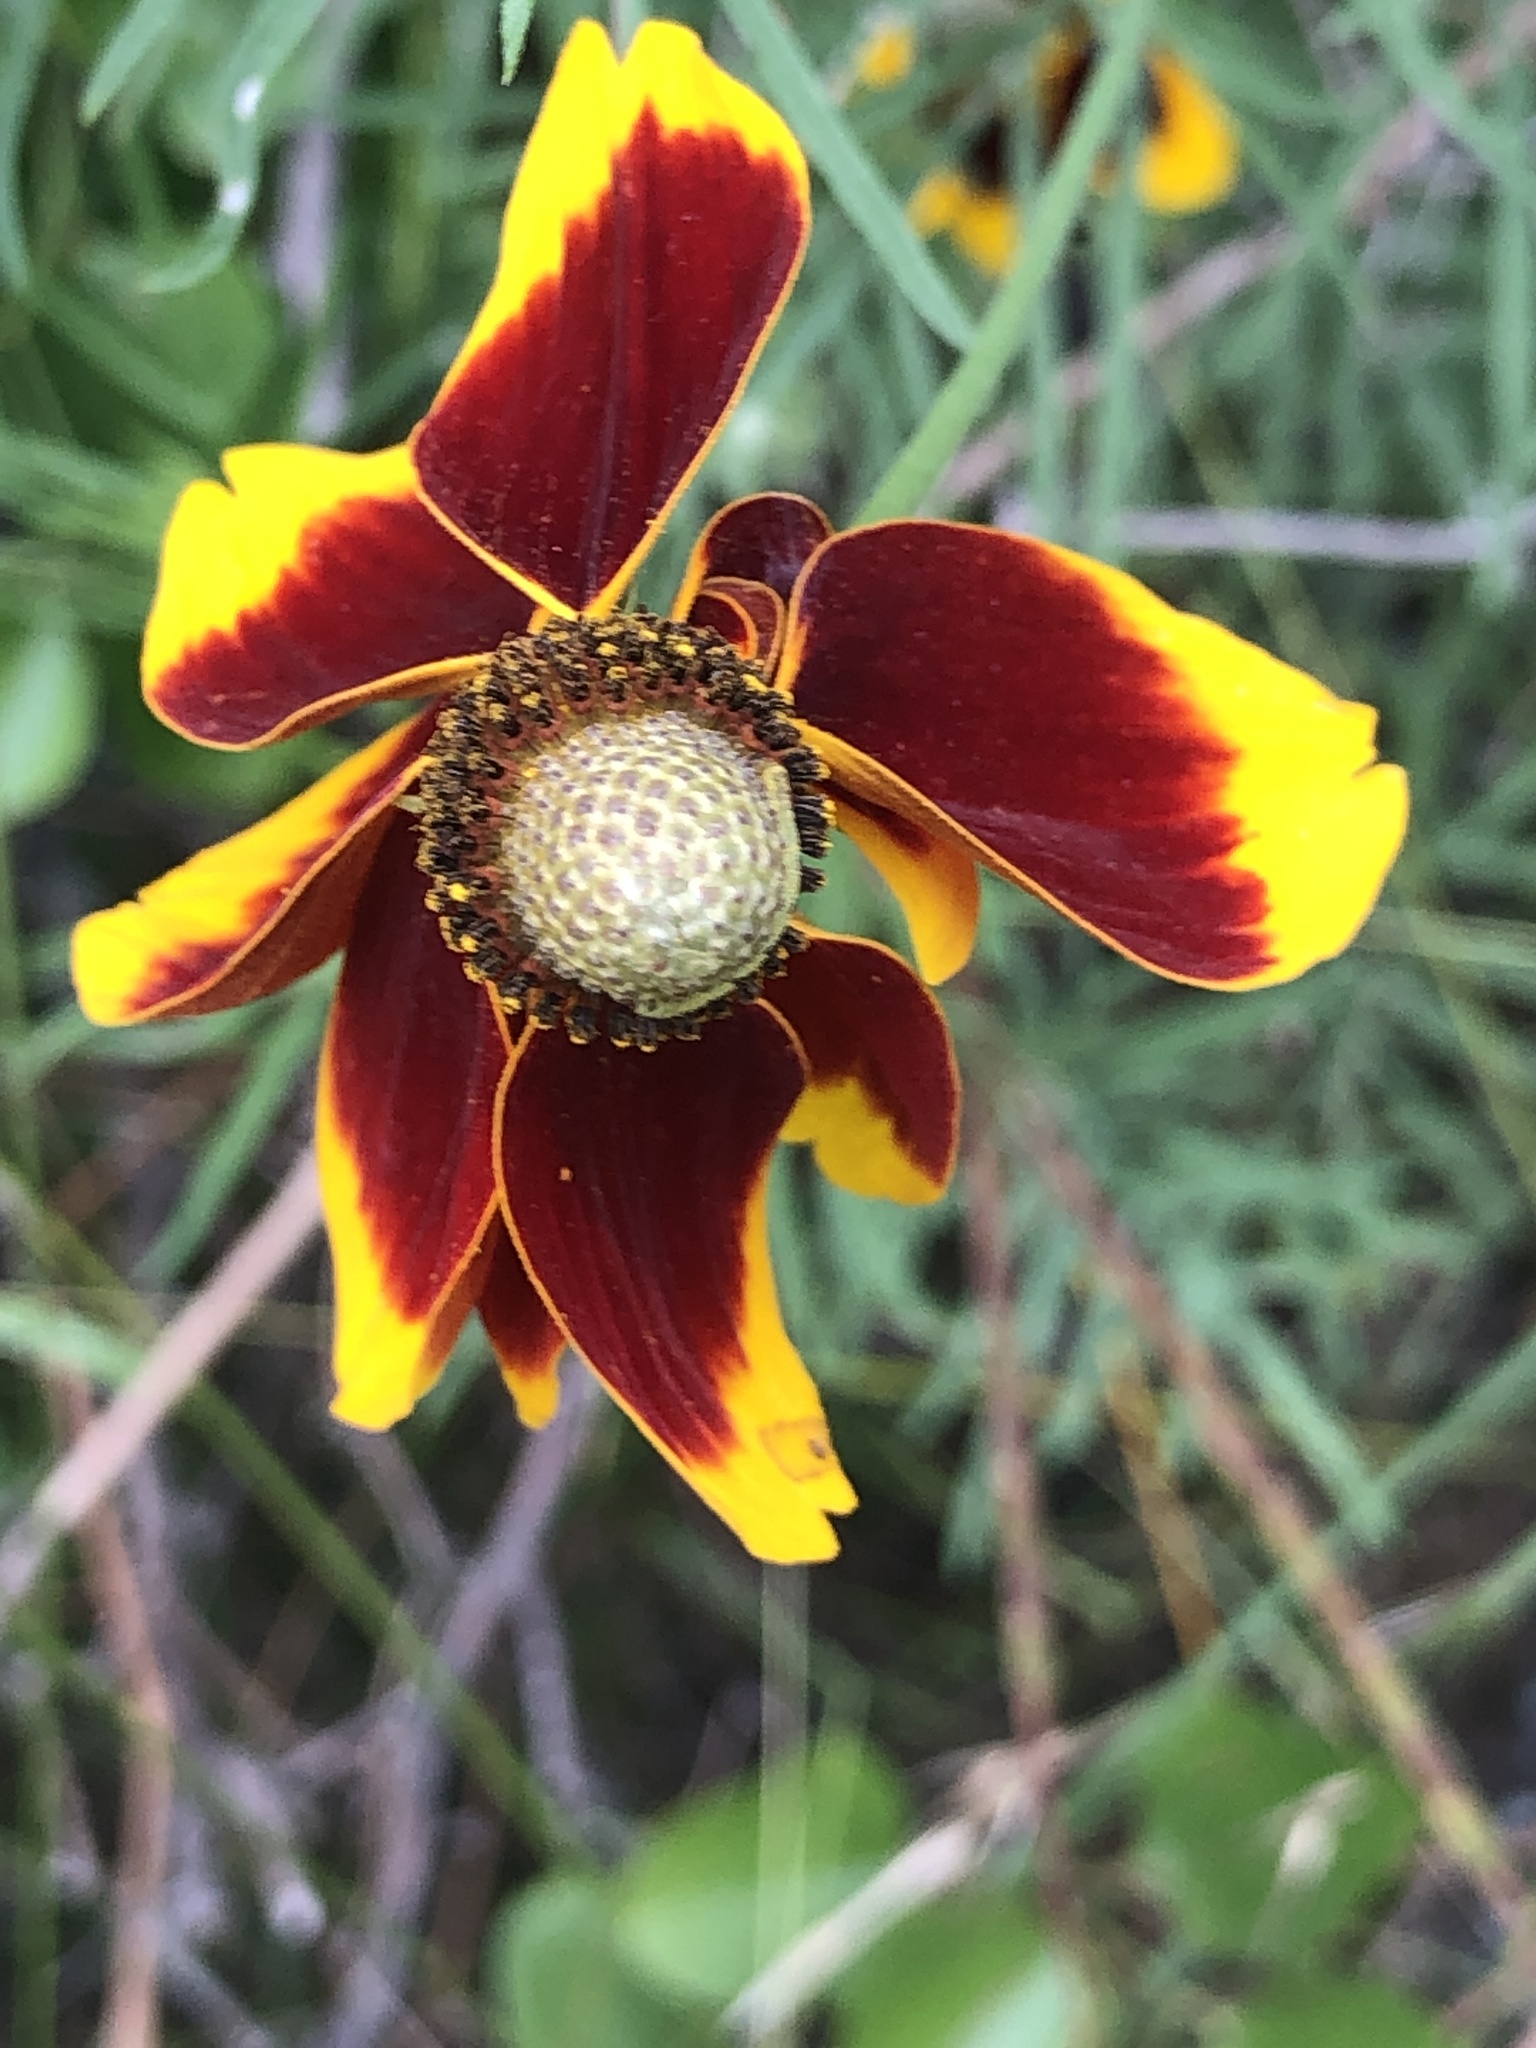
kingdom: Plantae
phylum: Tracheophyta
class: Magnoliopsida
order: Asterales
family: Asteraceae
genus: Ratibida
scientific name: Ratibida columnifera
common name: Prairie coneflower
